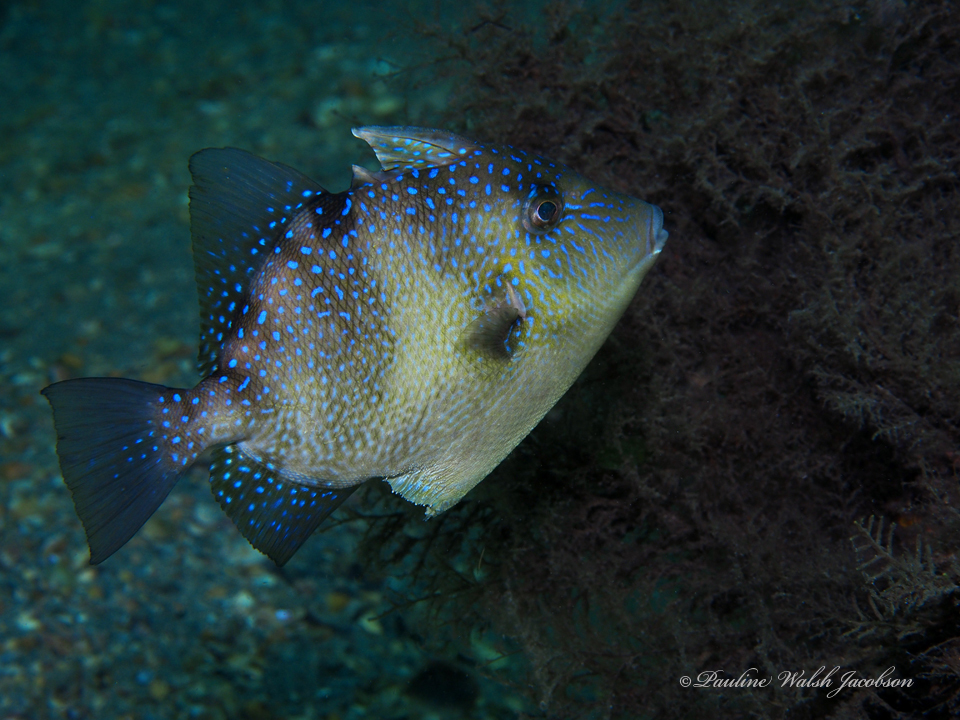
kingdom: Animalia
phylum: Chordata
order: Tetraodontiformes
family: Balistidae
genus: Balistes
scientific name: Balistes capriscus
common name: Grey triggerfish
